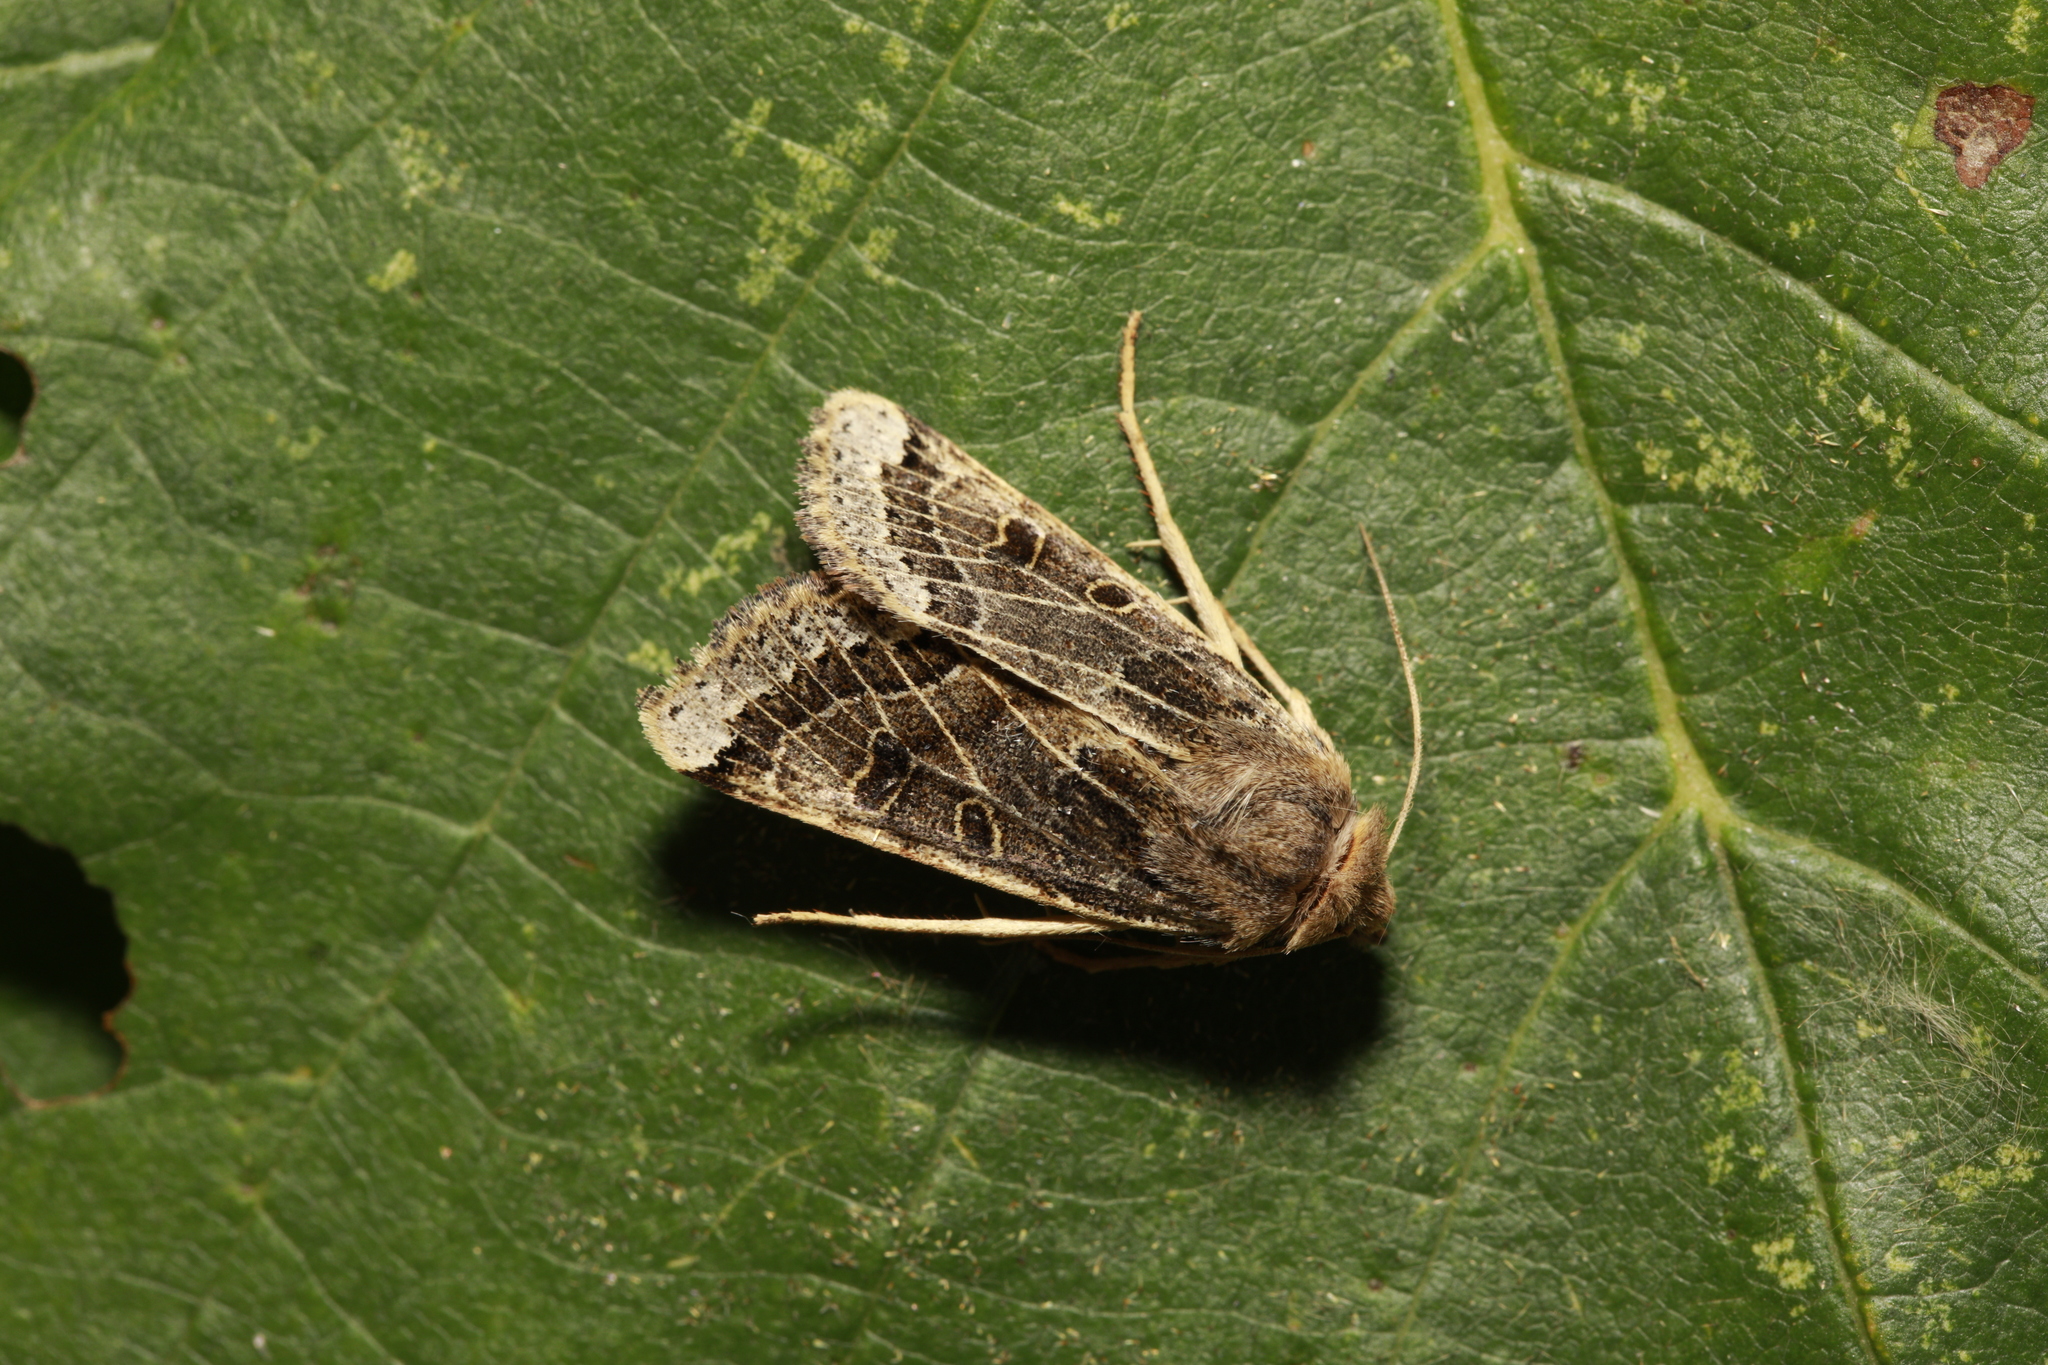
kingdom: Animalia
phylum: Arthropoda
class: Insecta
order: Lepidoptera
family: Noctuidae
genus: Agrochola
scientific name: Agrochola lunosa
